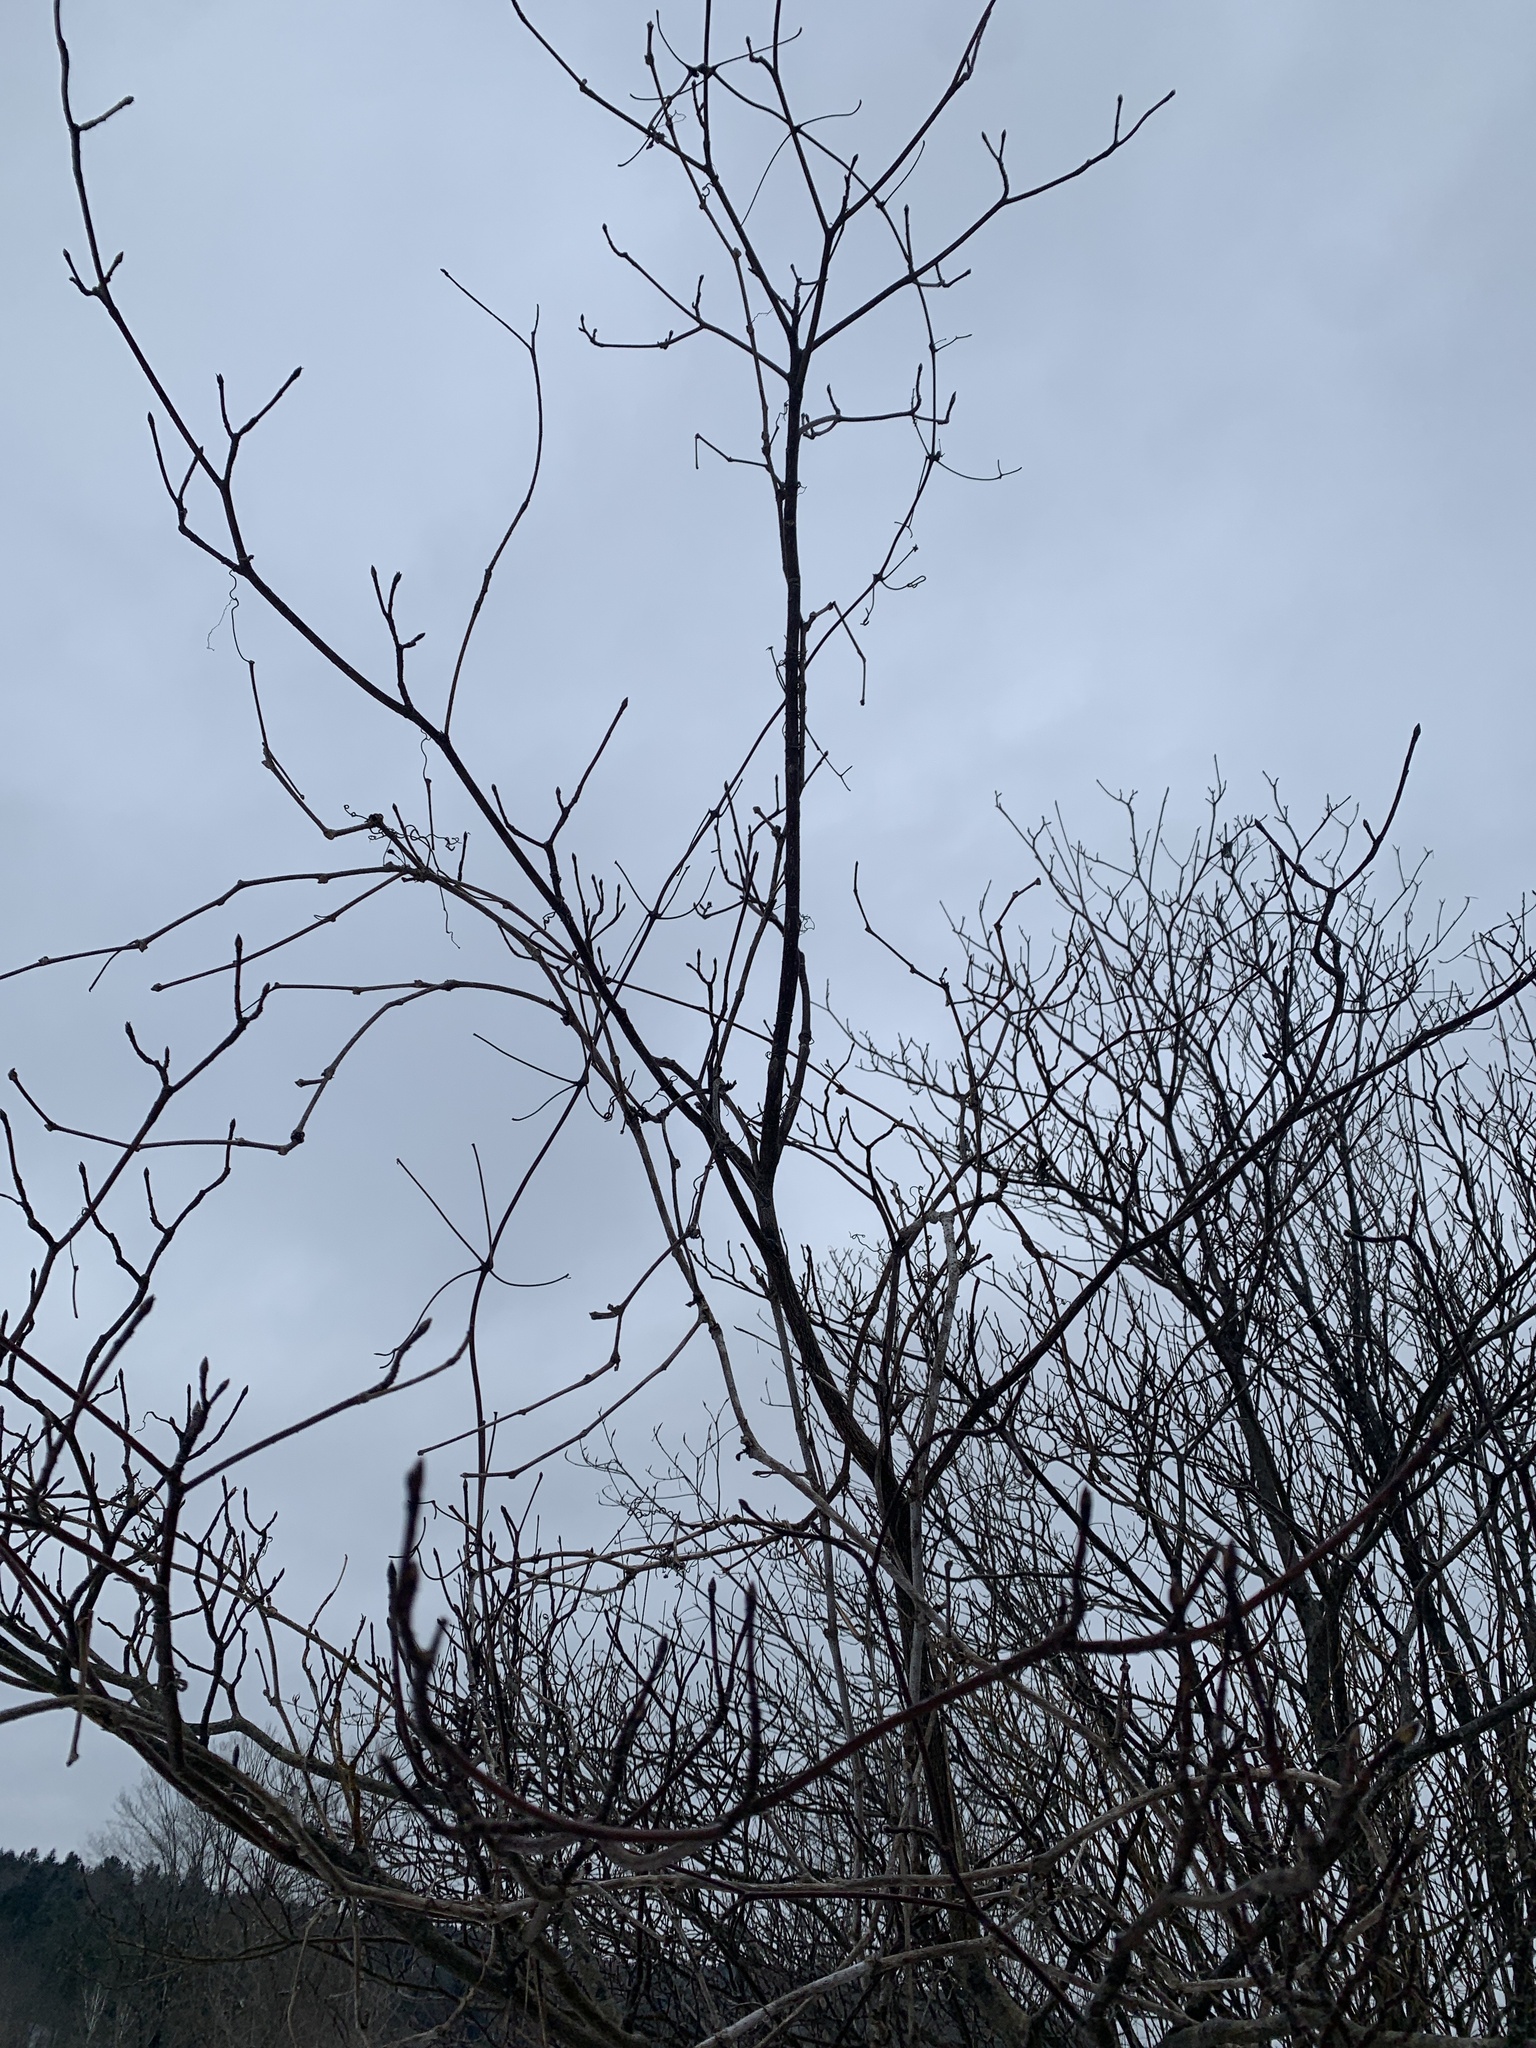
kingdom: Plantae
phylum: Tracheophyta
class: Magnoliopsida
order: Cornales
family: Cornaceae
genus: Cornus
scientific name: Cornus alternifolia
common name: Pagoda dogwood
